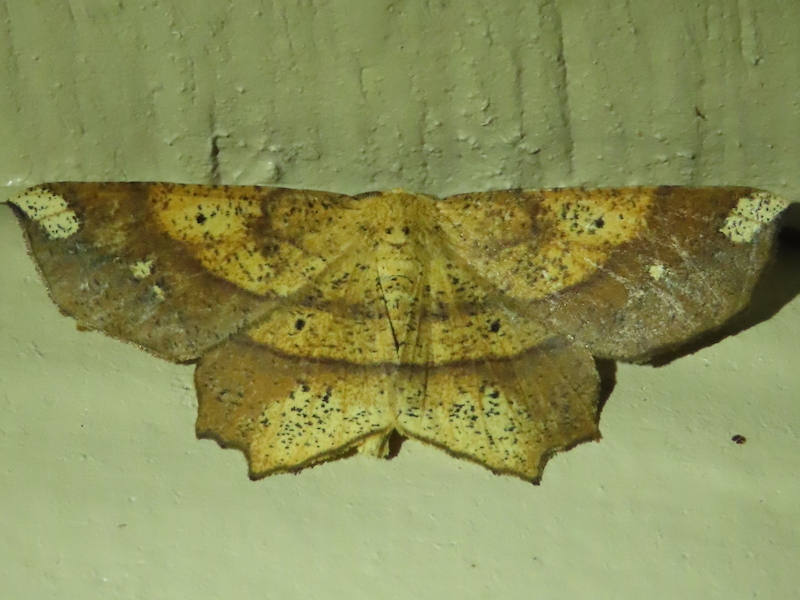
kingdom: Animalia
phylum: Arthropoda
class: Insecta
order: Lepidoptera
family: Geometridae
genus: Euchlaena
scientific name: Euchlaena amoenaria
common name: Deep yellow euchlaena
